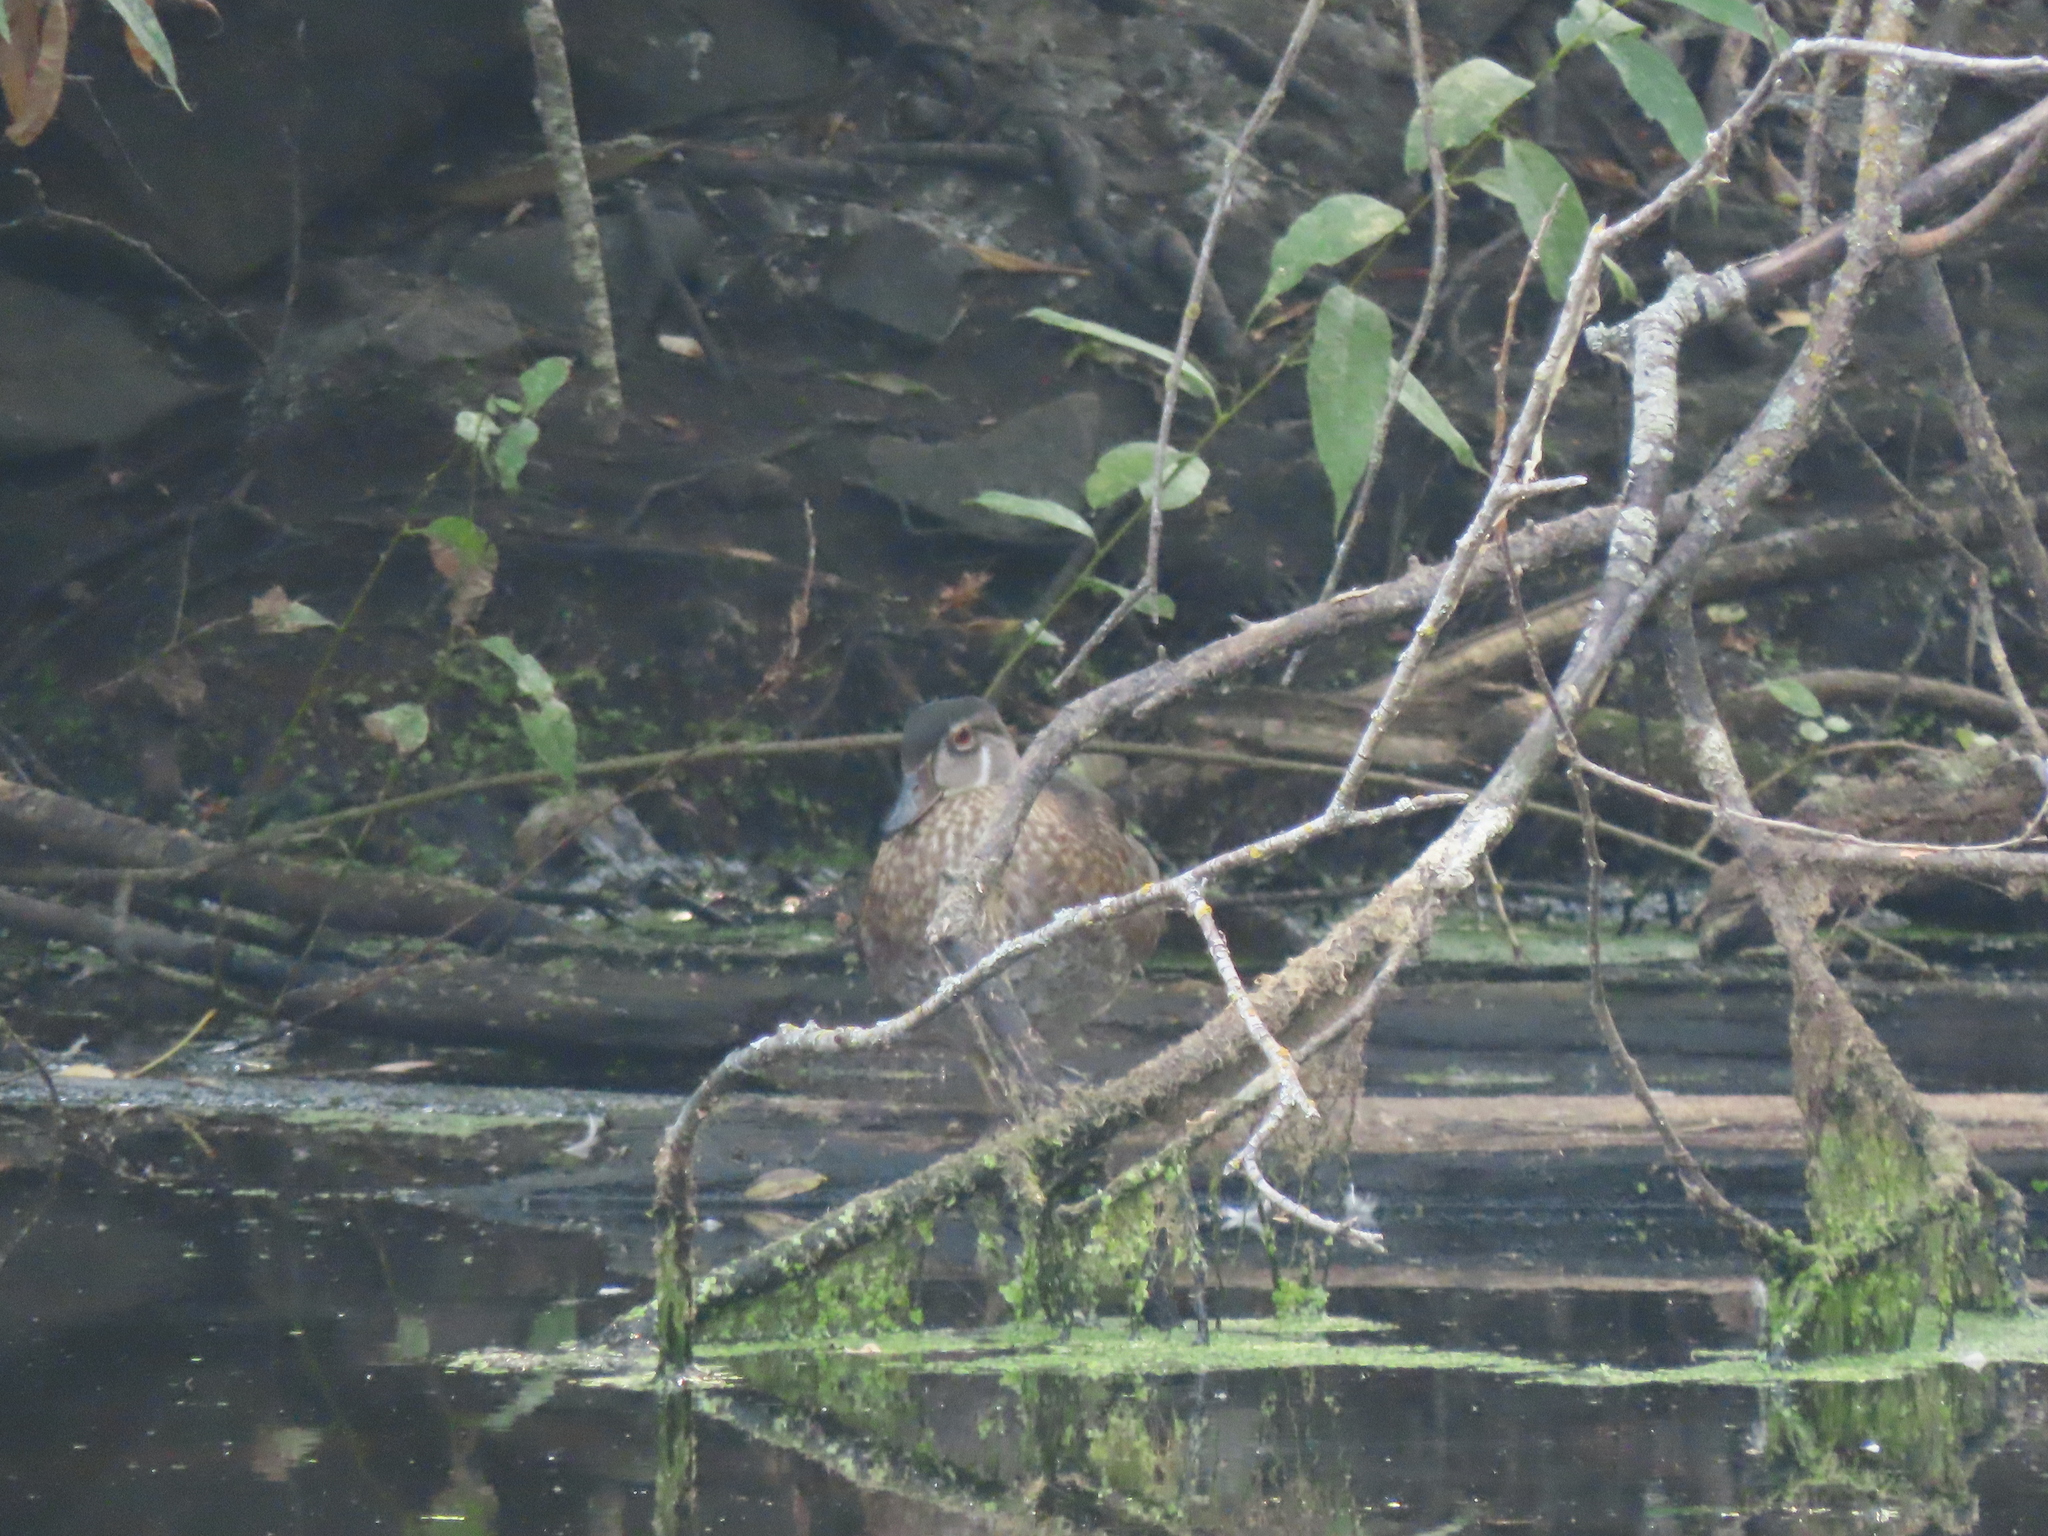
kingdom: Animalia
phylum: Chordata
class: Aves
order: Anseriformes
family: Anatidae
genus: Aix
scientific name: Aix sponsa
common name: Wood duck
